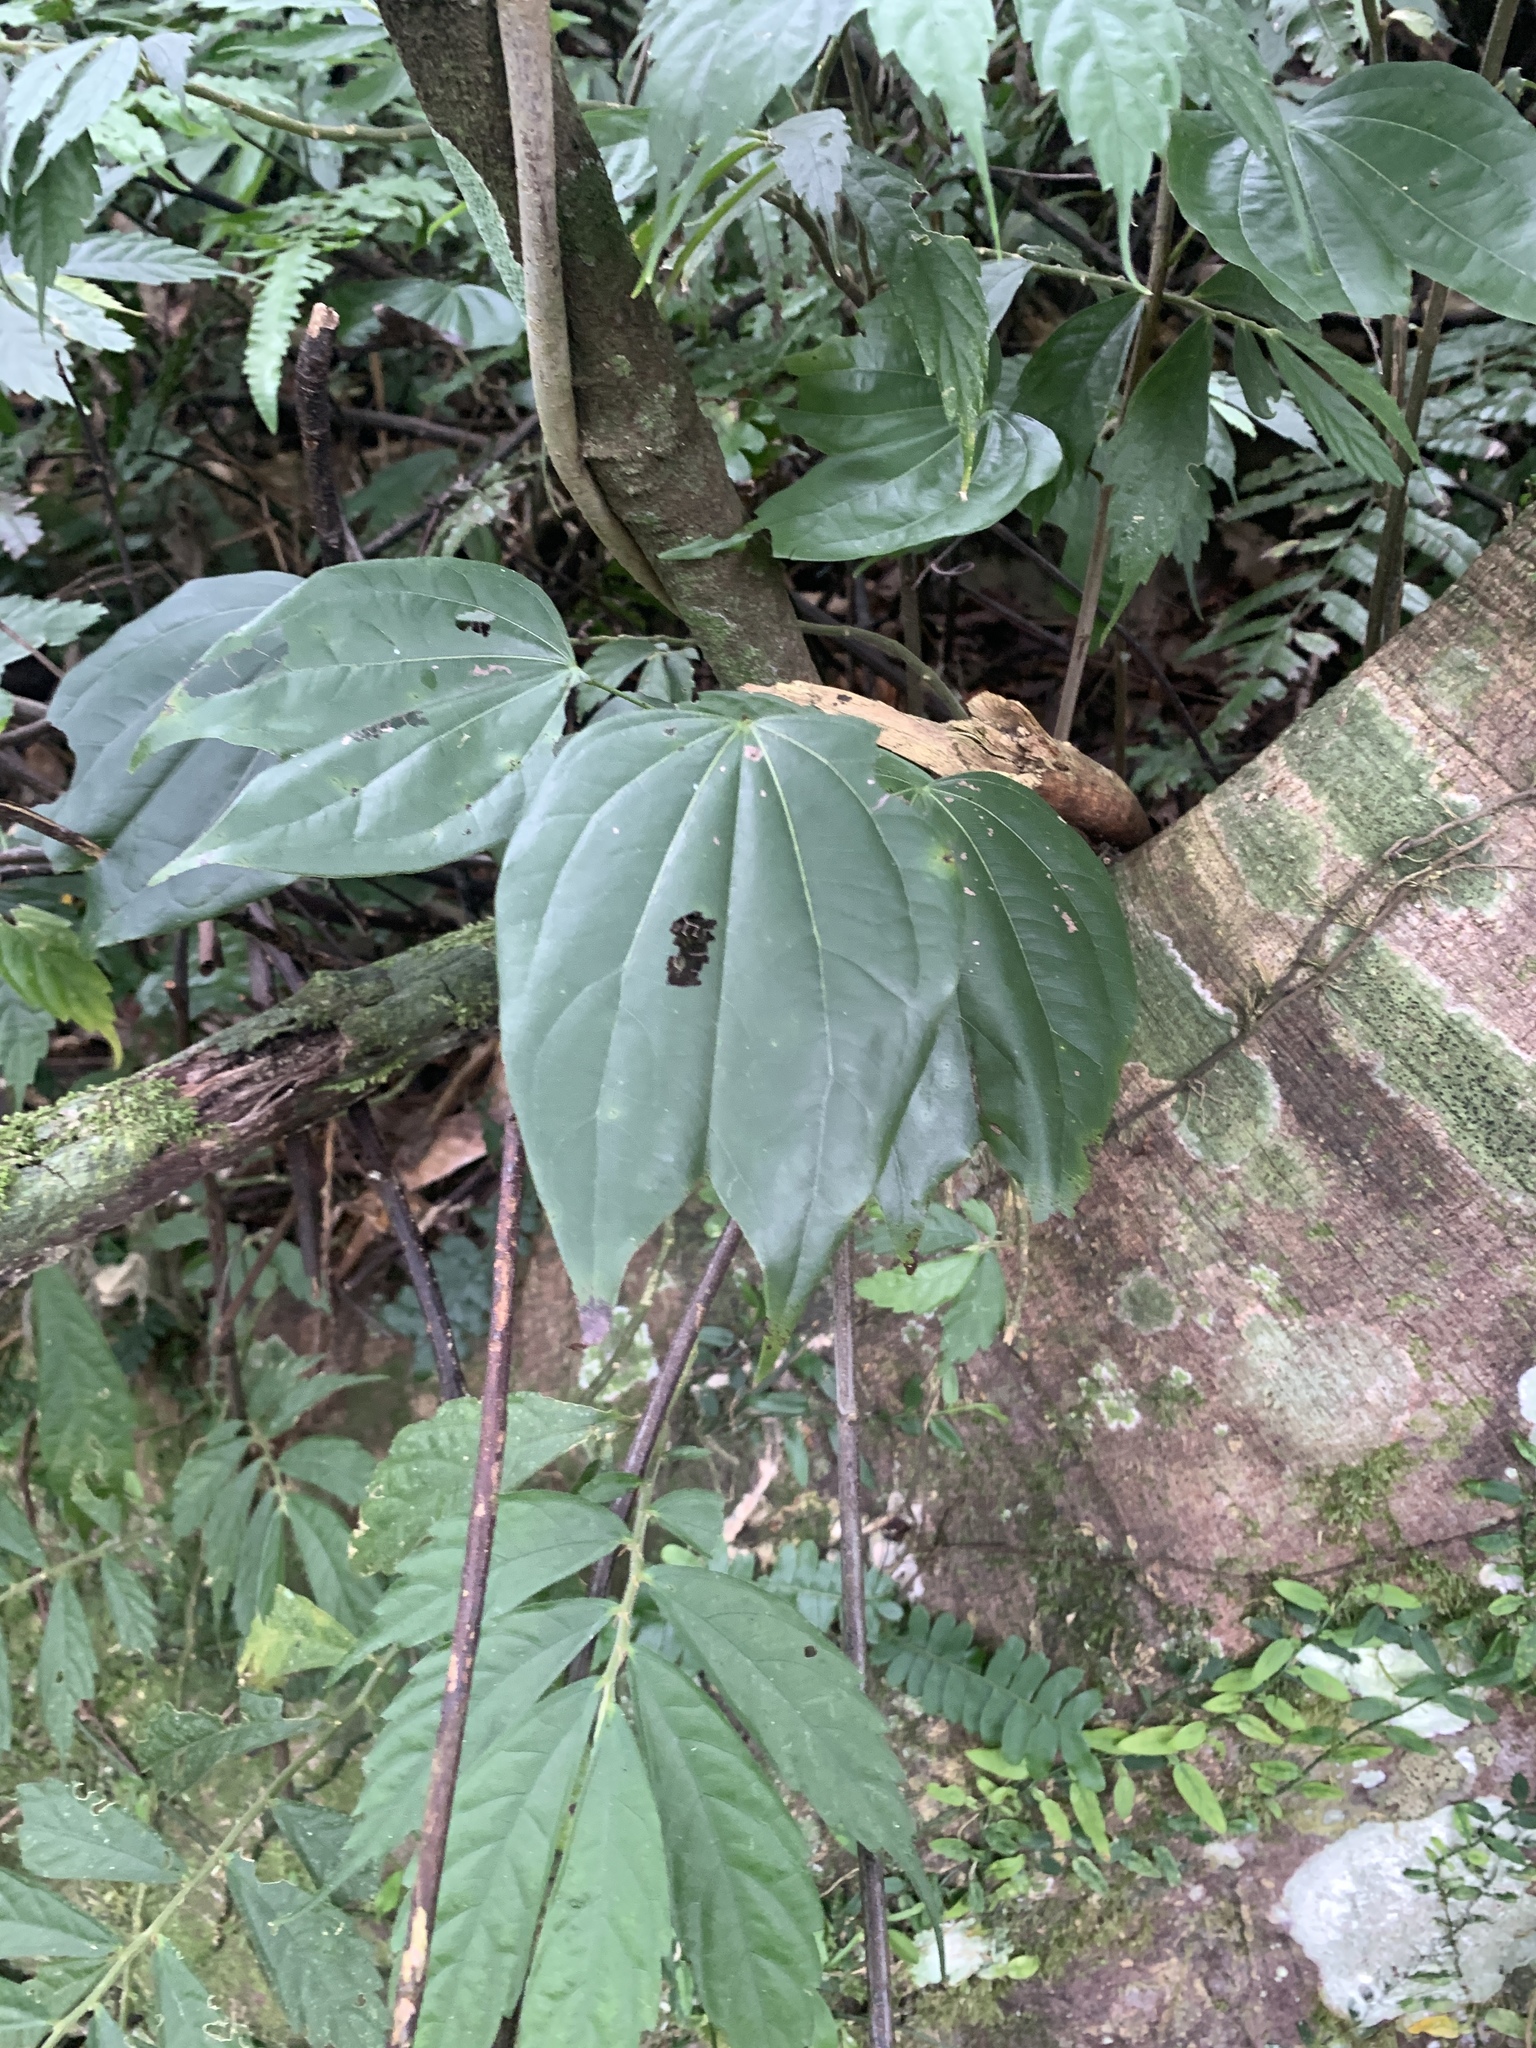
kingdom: Plantae
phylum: Tracheophyta
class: Magnoliopsida
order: Fabales
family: Fabaceae
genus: Phanera
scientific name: Phanera championii
